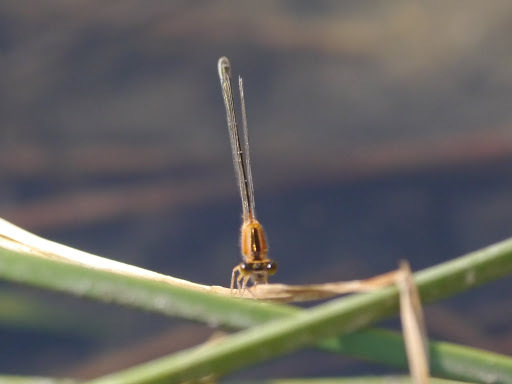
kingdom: Animalia
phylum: Arthropoda
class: Insecta
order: Odonata
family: Coenagrionidae
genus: Ischnura
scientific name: Ischnura senegalensis
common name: Tropical bluetail
